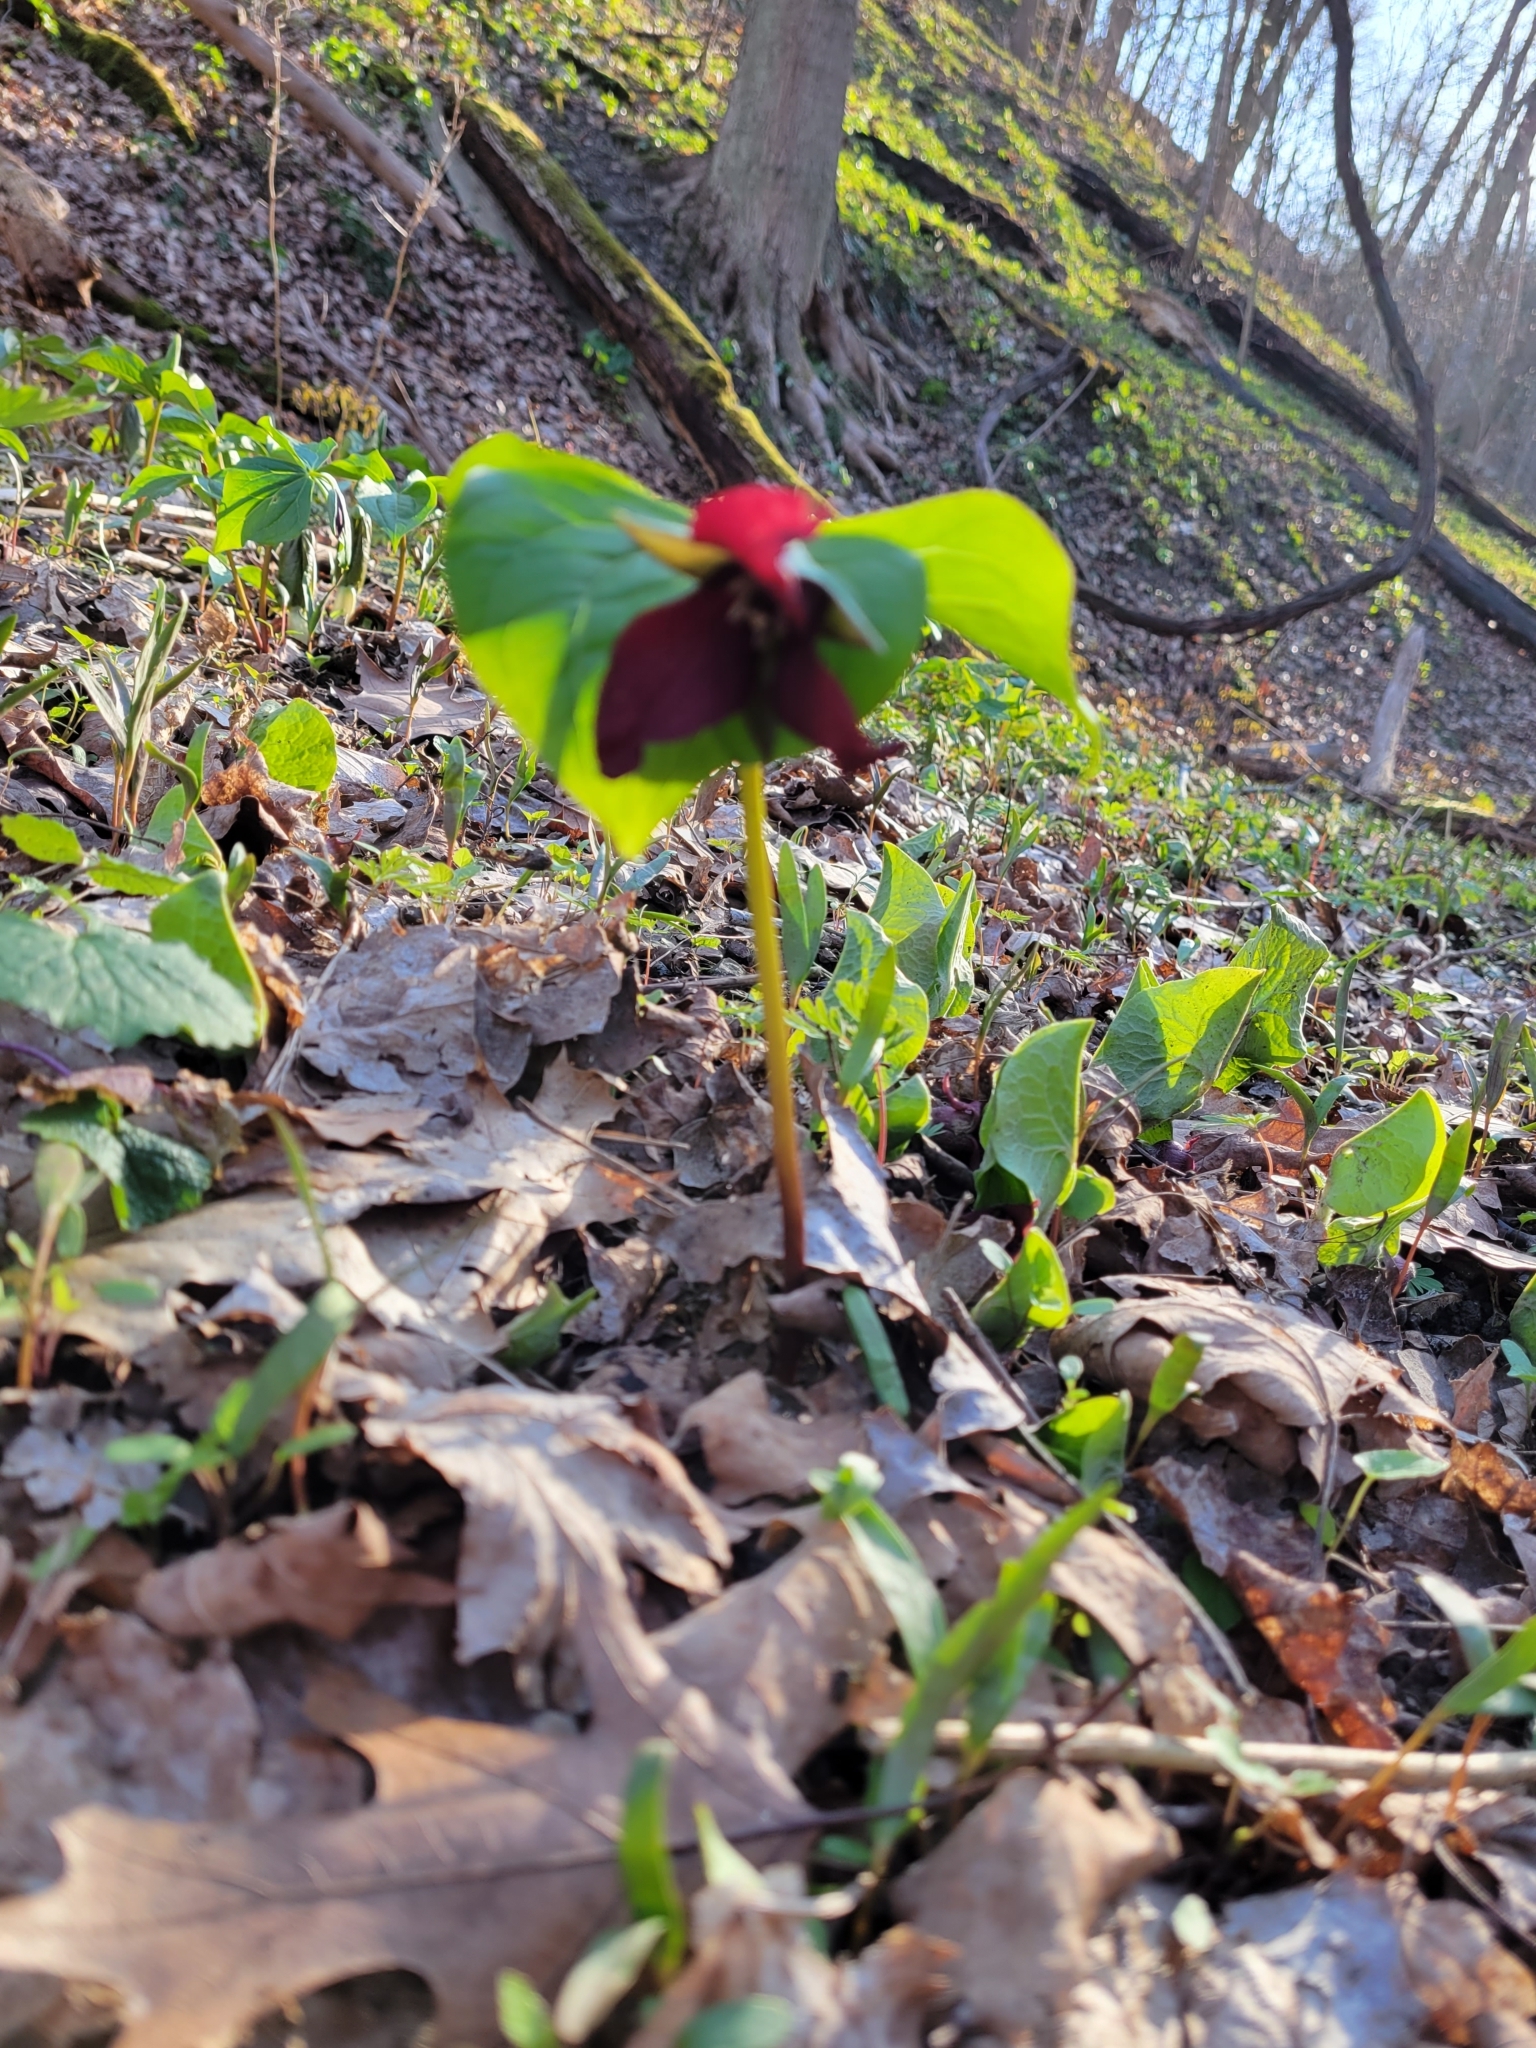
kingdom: Plantae
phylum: Tracheophyta
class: Liliopsida
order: Liliales
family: Melanthiaceae
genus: Trillium
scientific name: Trillium erectum
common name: Purple trillium
